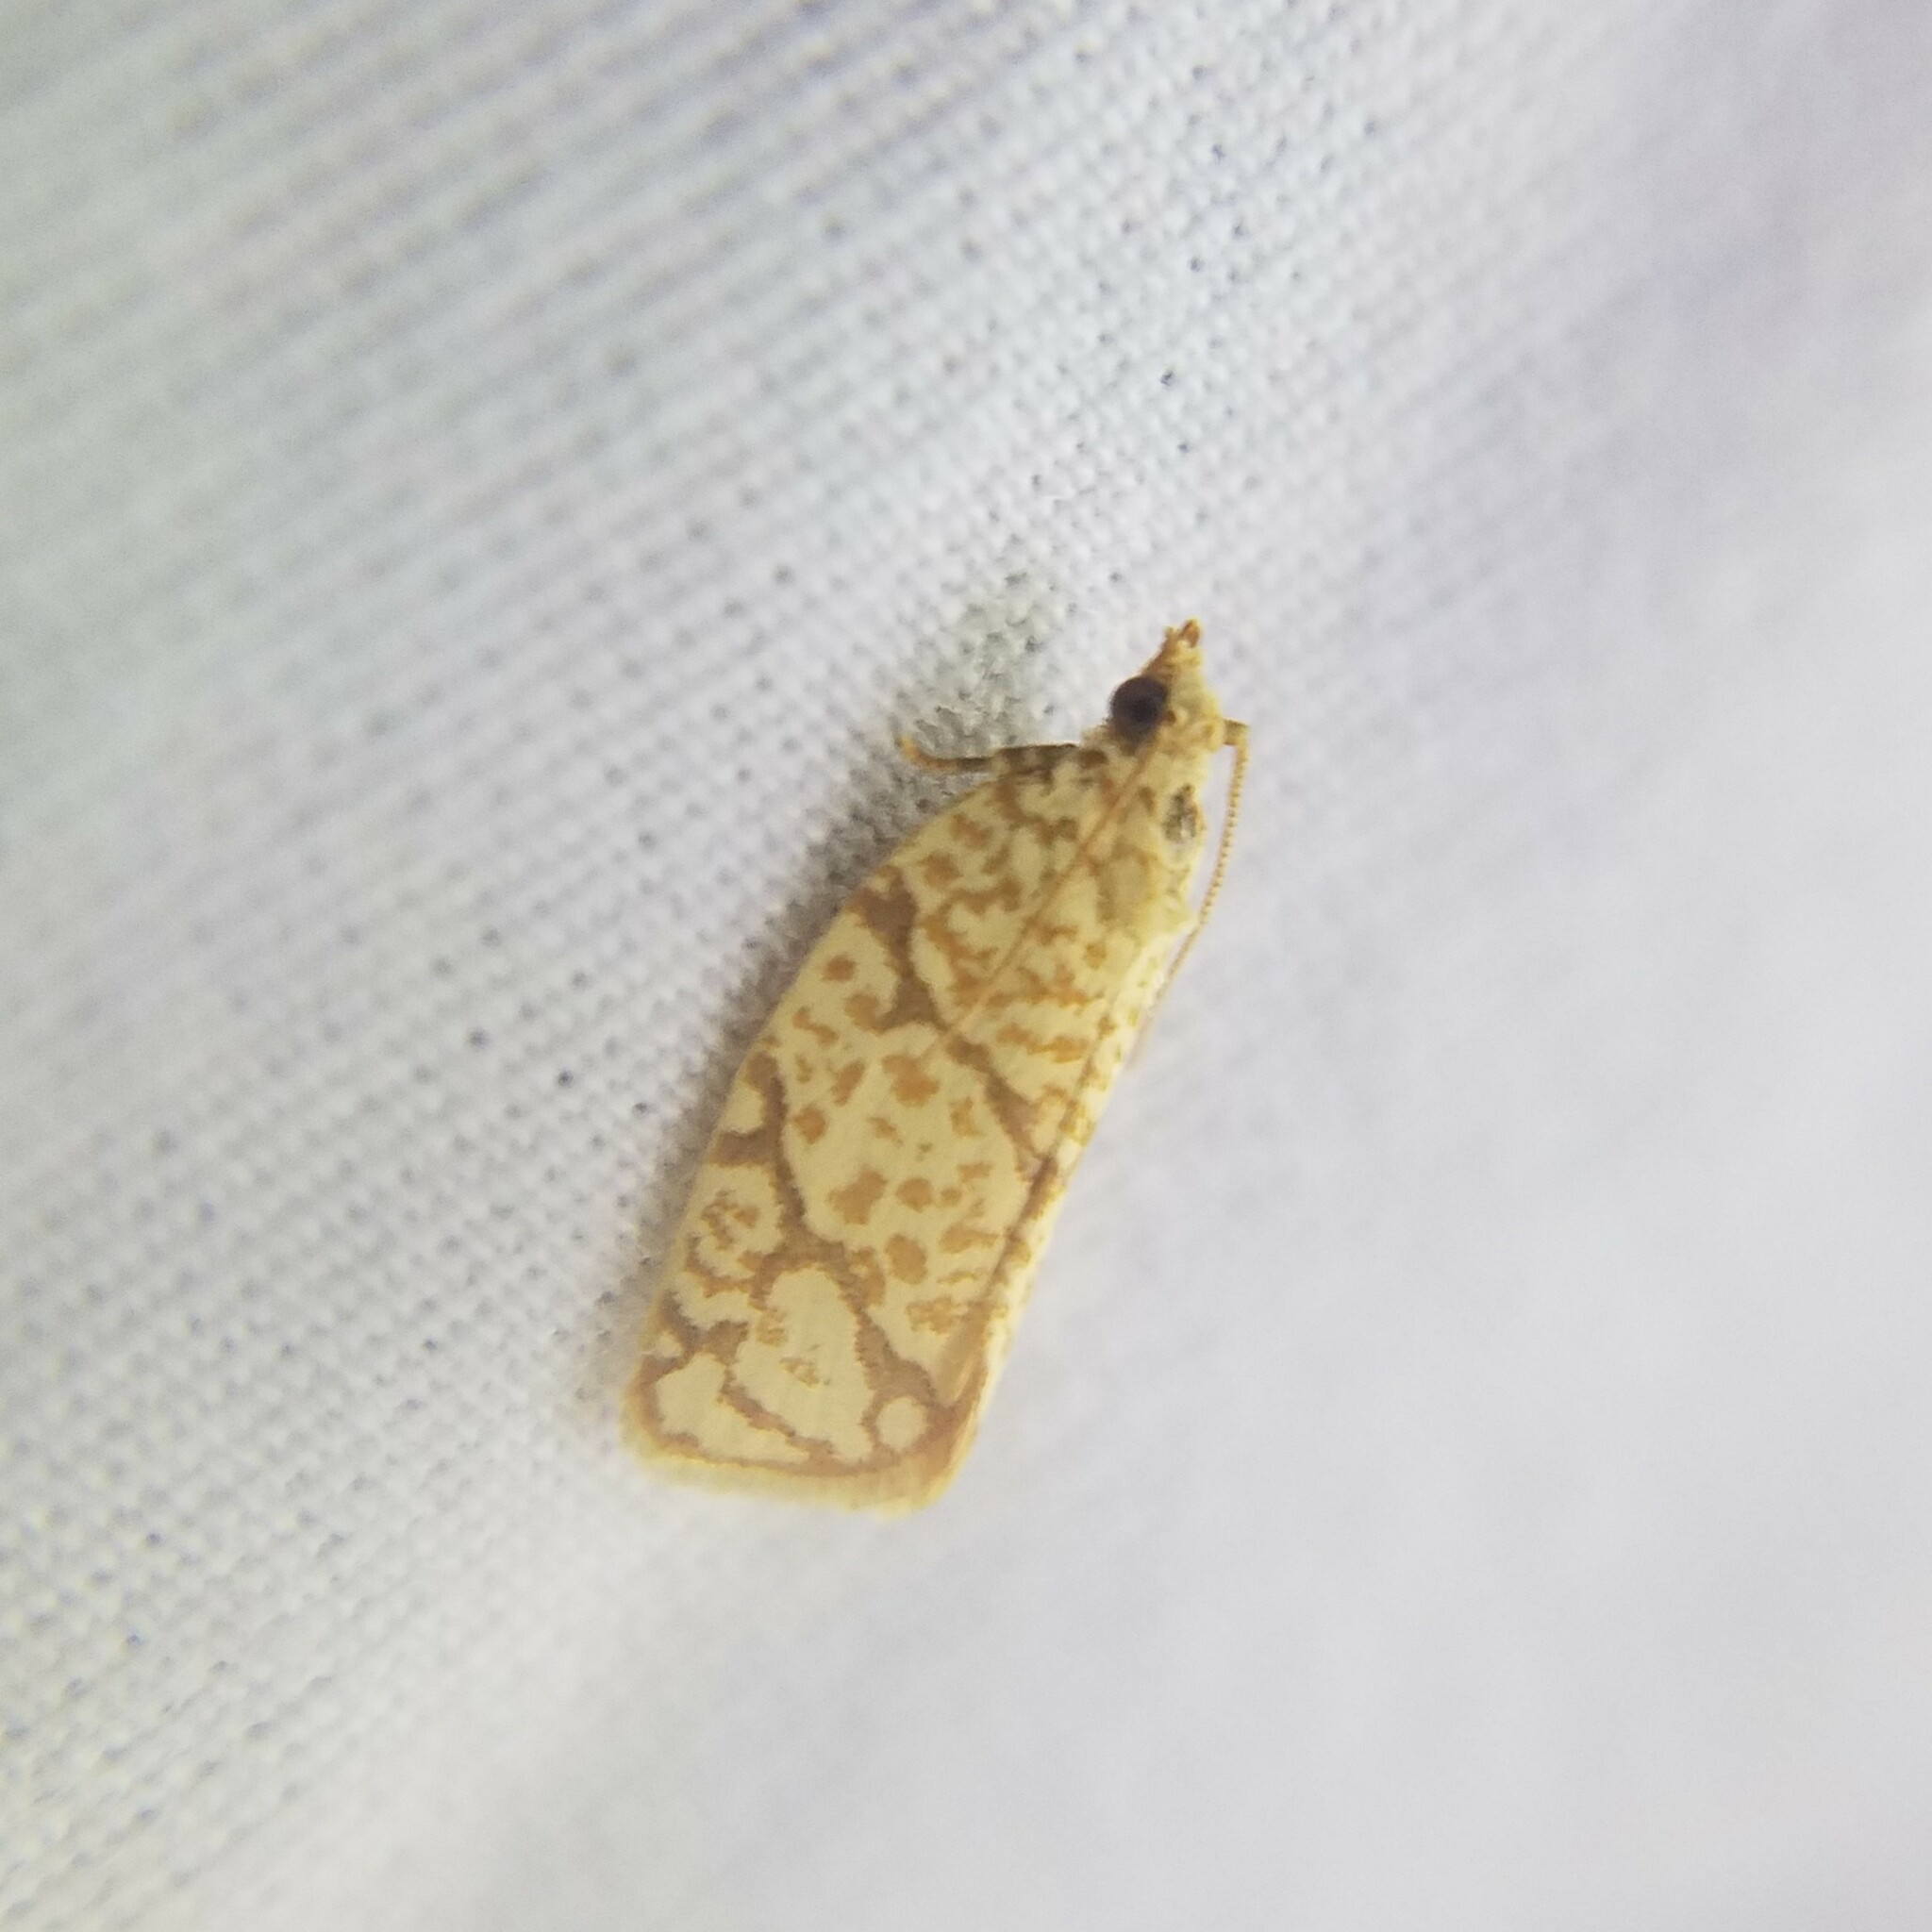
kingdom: Animalia
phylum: Arthropoda
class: Insecta
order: Lepidoptera
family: Tortricidae
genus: Argyrotaenia
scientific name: Argyrotaenia quercifoliana
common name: Yellow-winged oak leafroller moth
